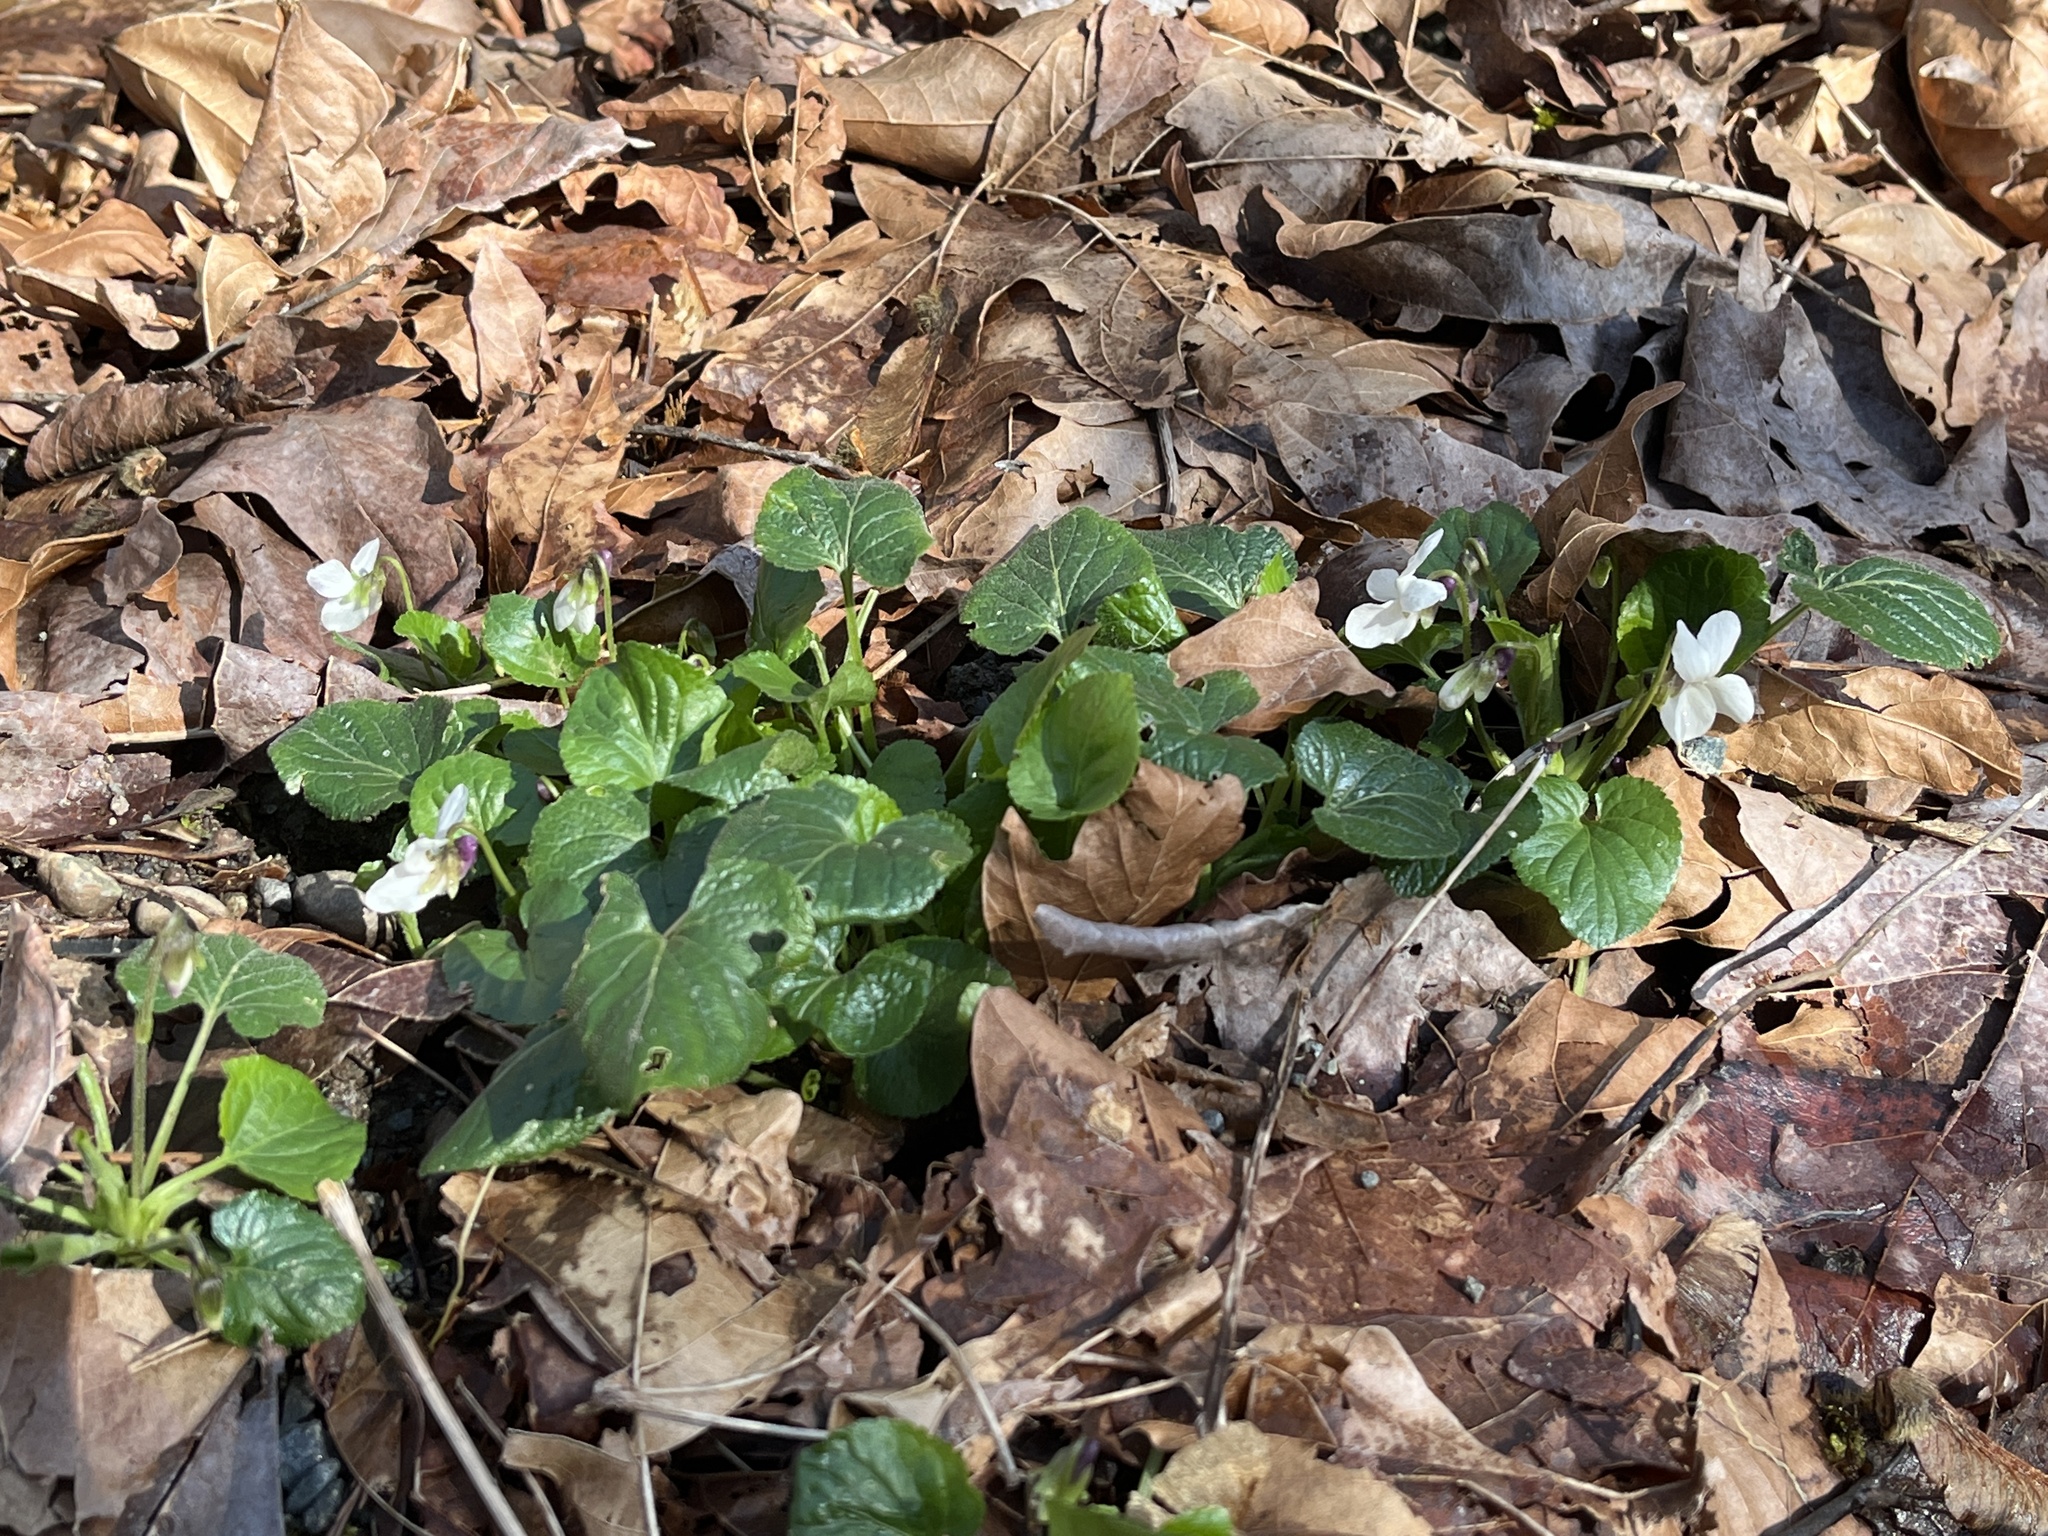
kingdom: Plantae
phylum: Tracheophyta
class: Magnoliopsida
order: Malpighiales
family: Violaceae
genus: Viola
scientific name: Viola riviniana
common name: Common dog-violet
